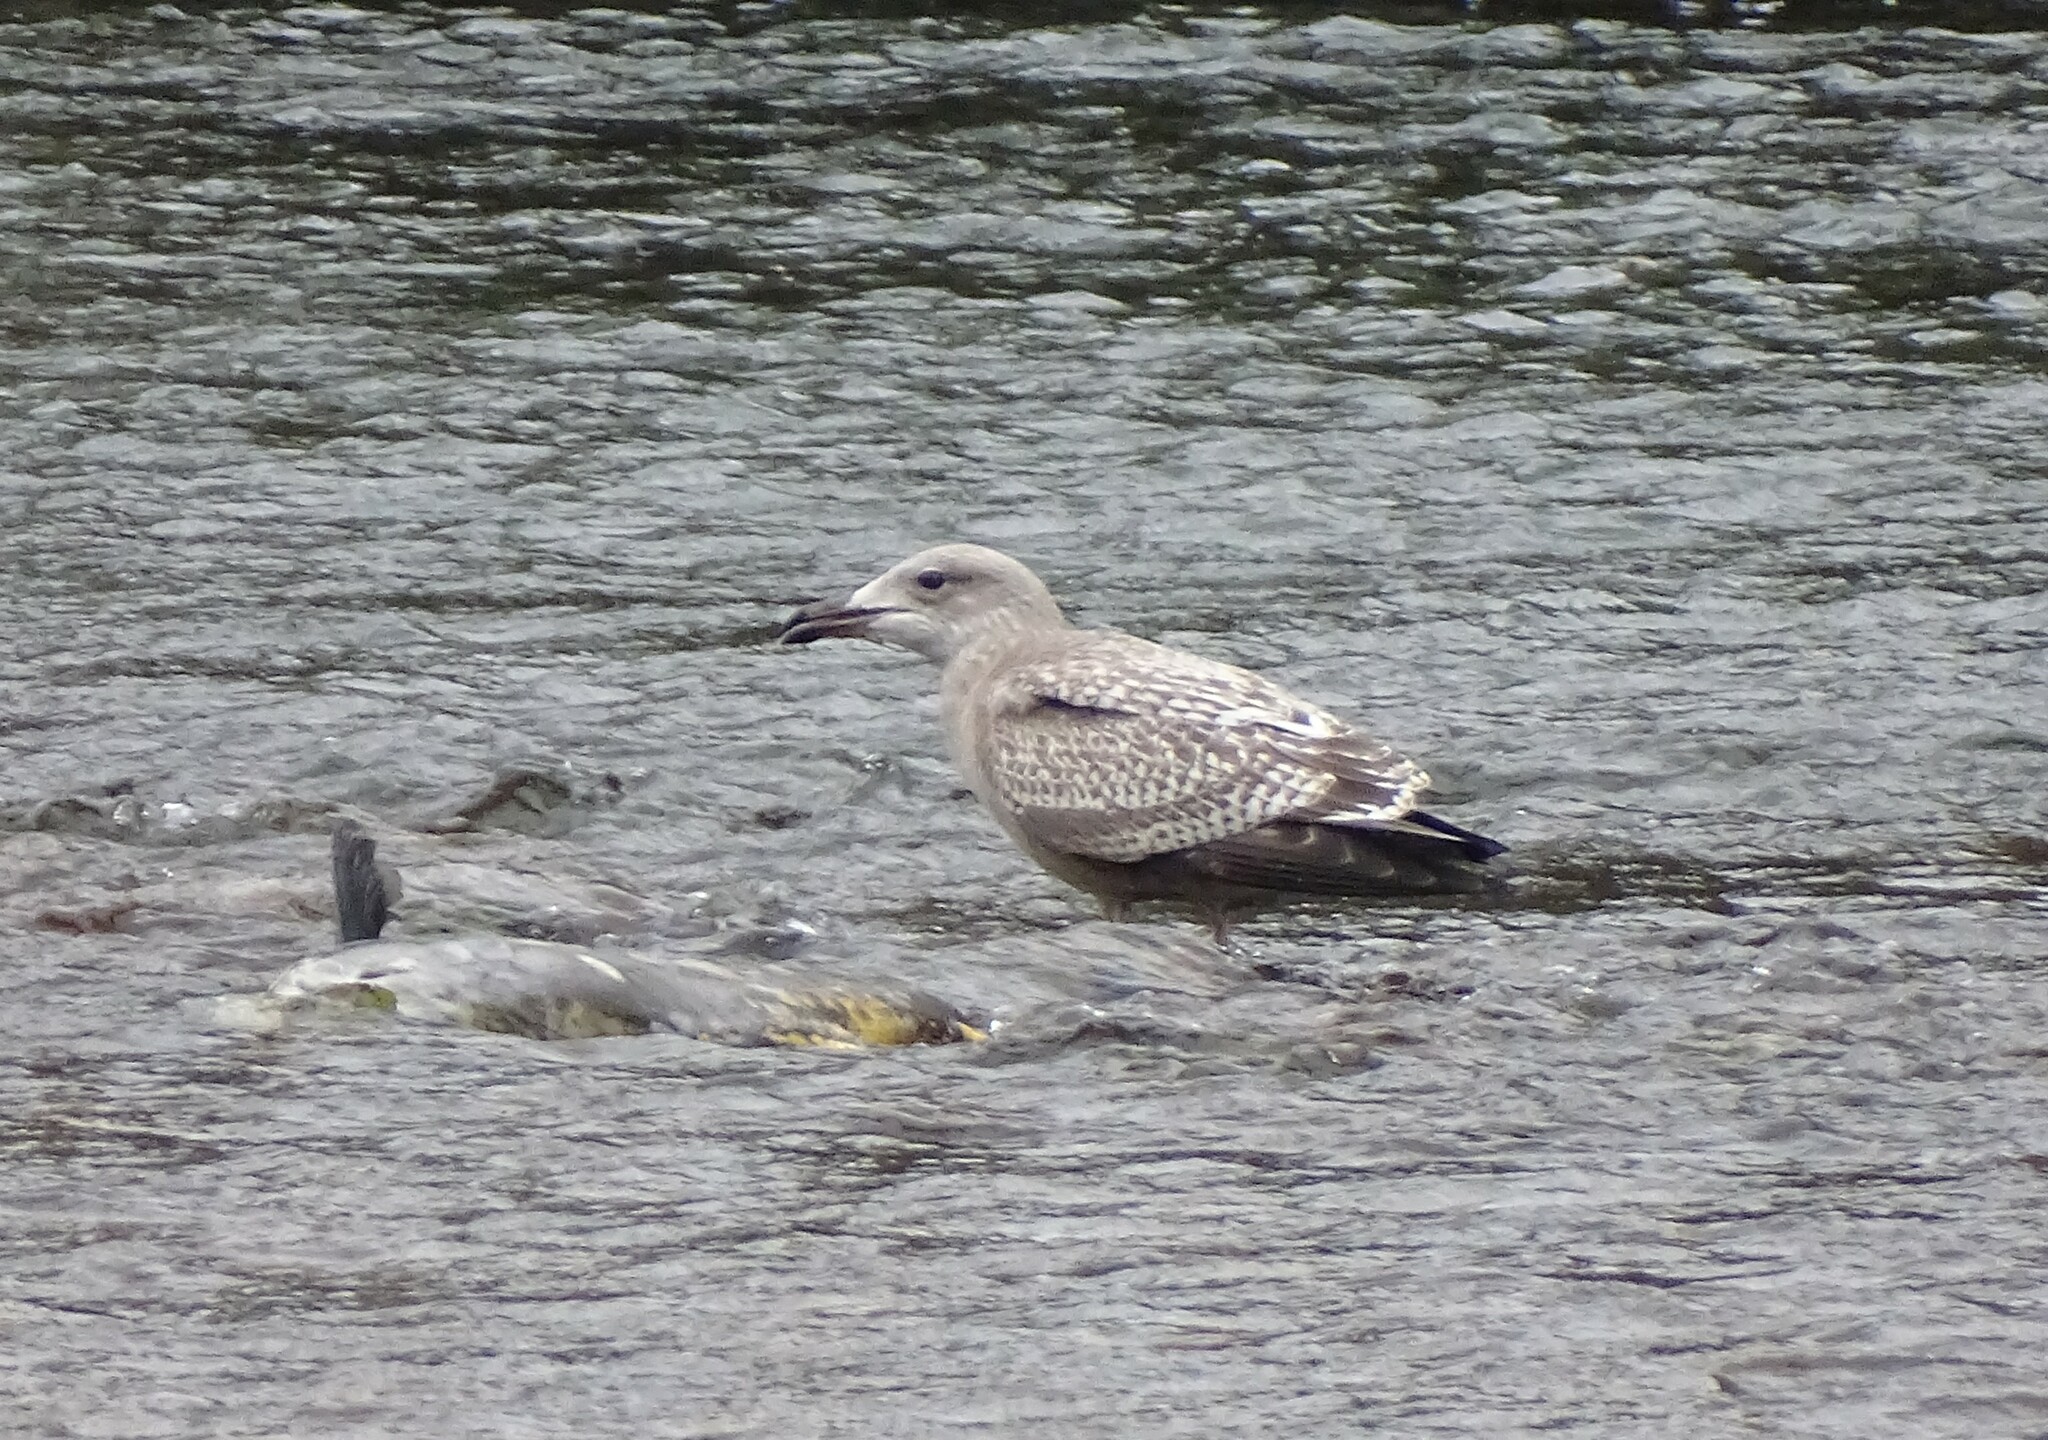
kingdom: Animalia
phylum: Chordata
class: Aves
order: Charadriiformes
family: Laridae
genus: Larus
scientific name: Larus argentatus
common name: Herring gull
